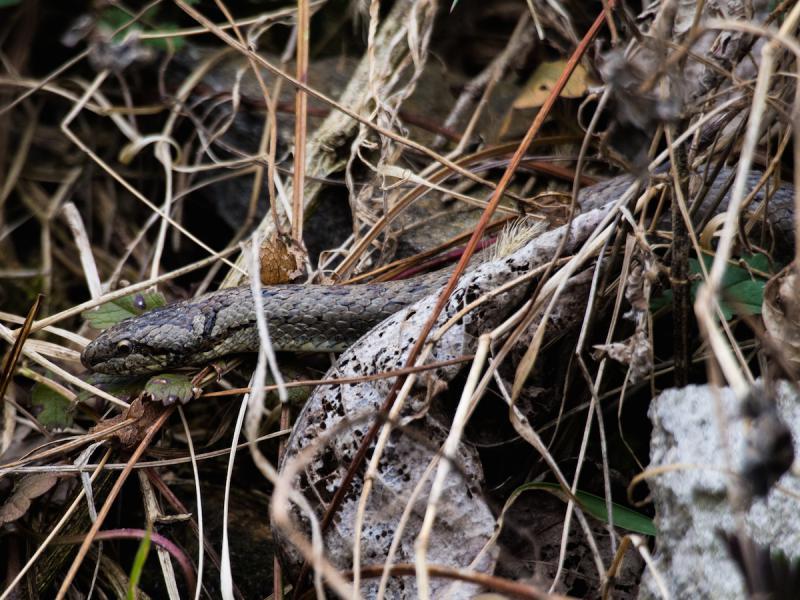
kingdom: Animalia
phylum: Chordata
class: Squamata
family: Colubridae
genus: Coronella
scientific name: Coronella austriaca
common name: Smooth snake
